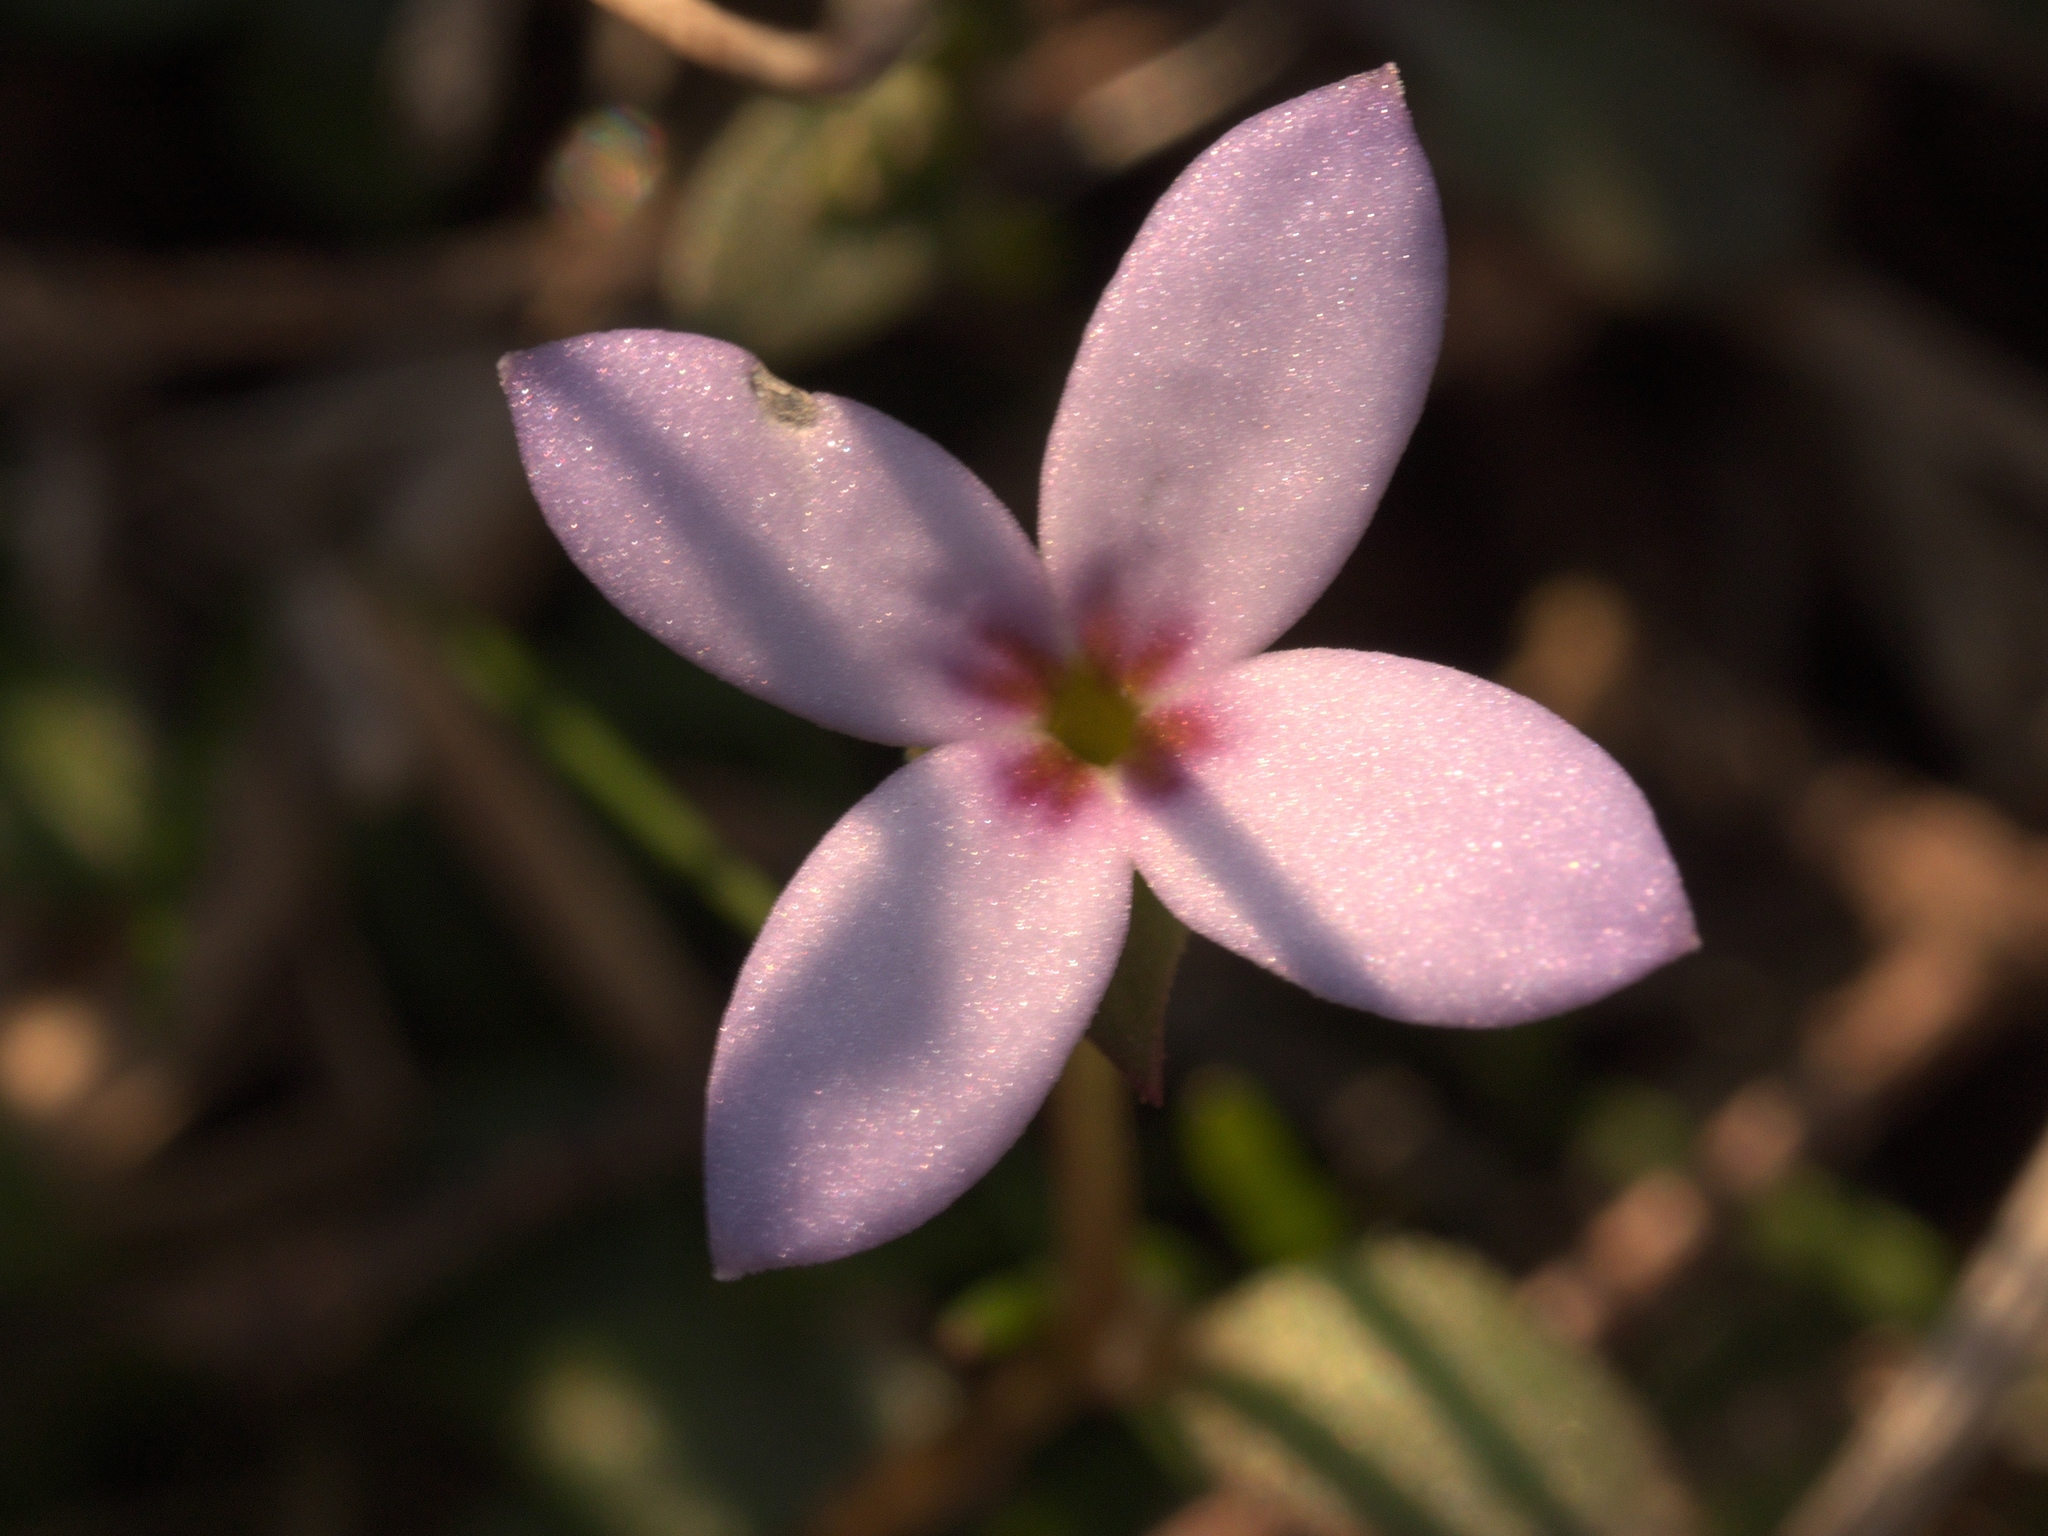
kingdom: Plantae
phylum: Tracheophyta
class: Magnoliopsida
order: Gentianales
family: Rubiaceae
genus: Houstonia
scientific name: Houstonia pusilla
